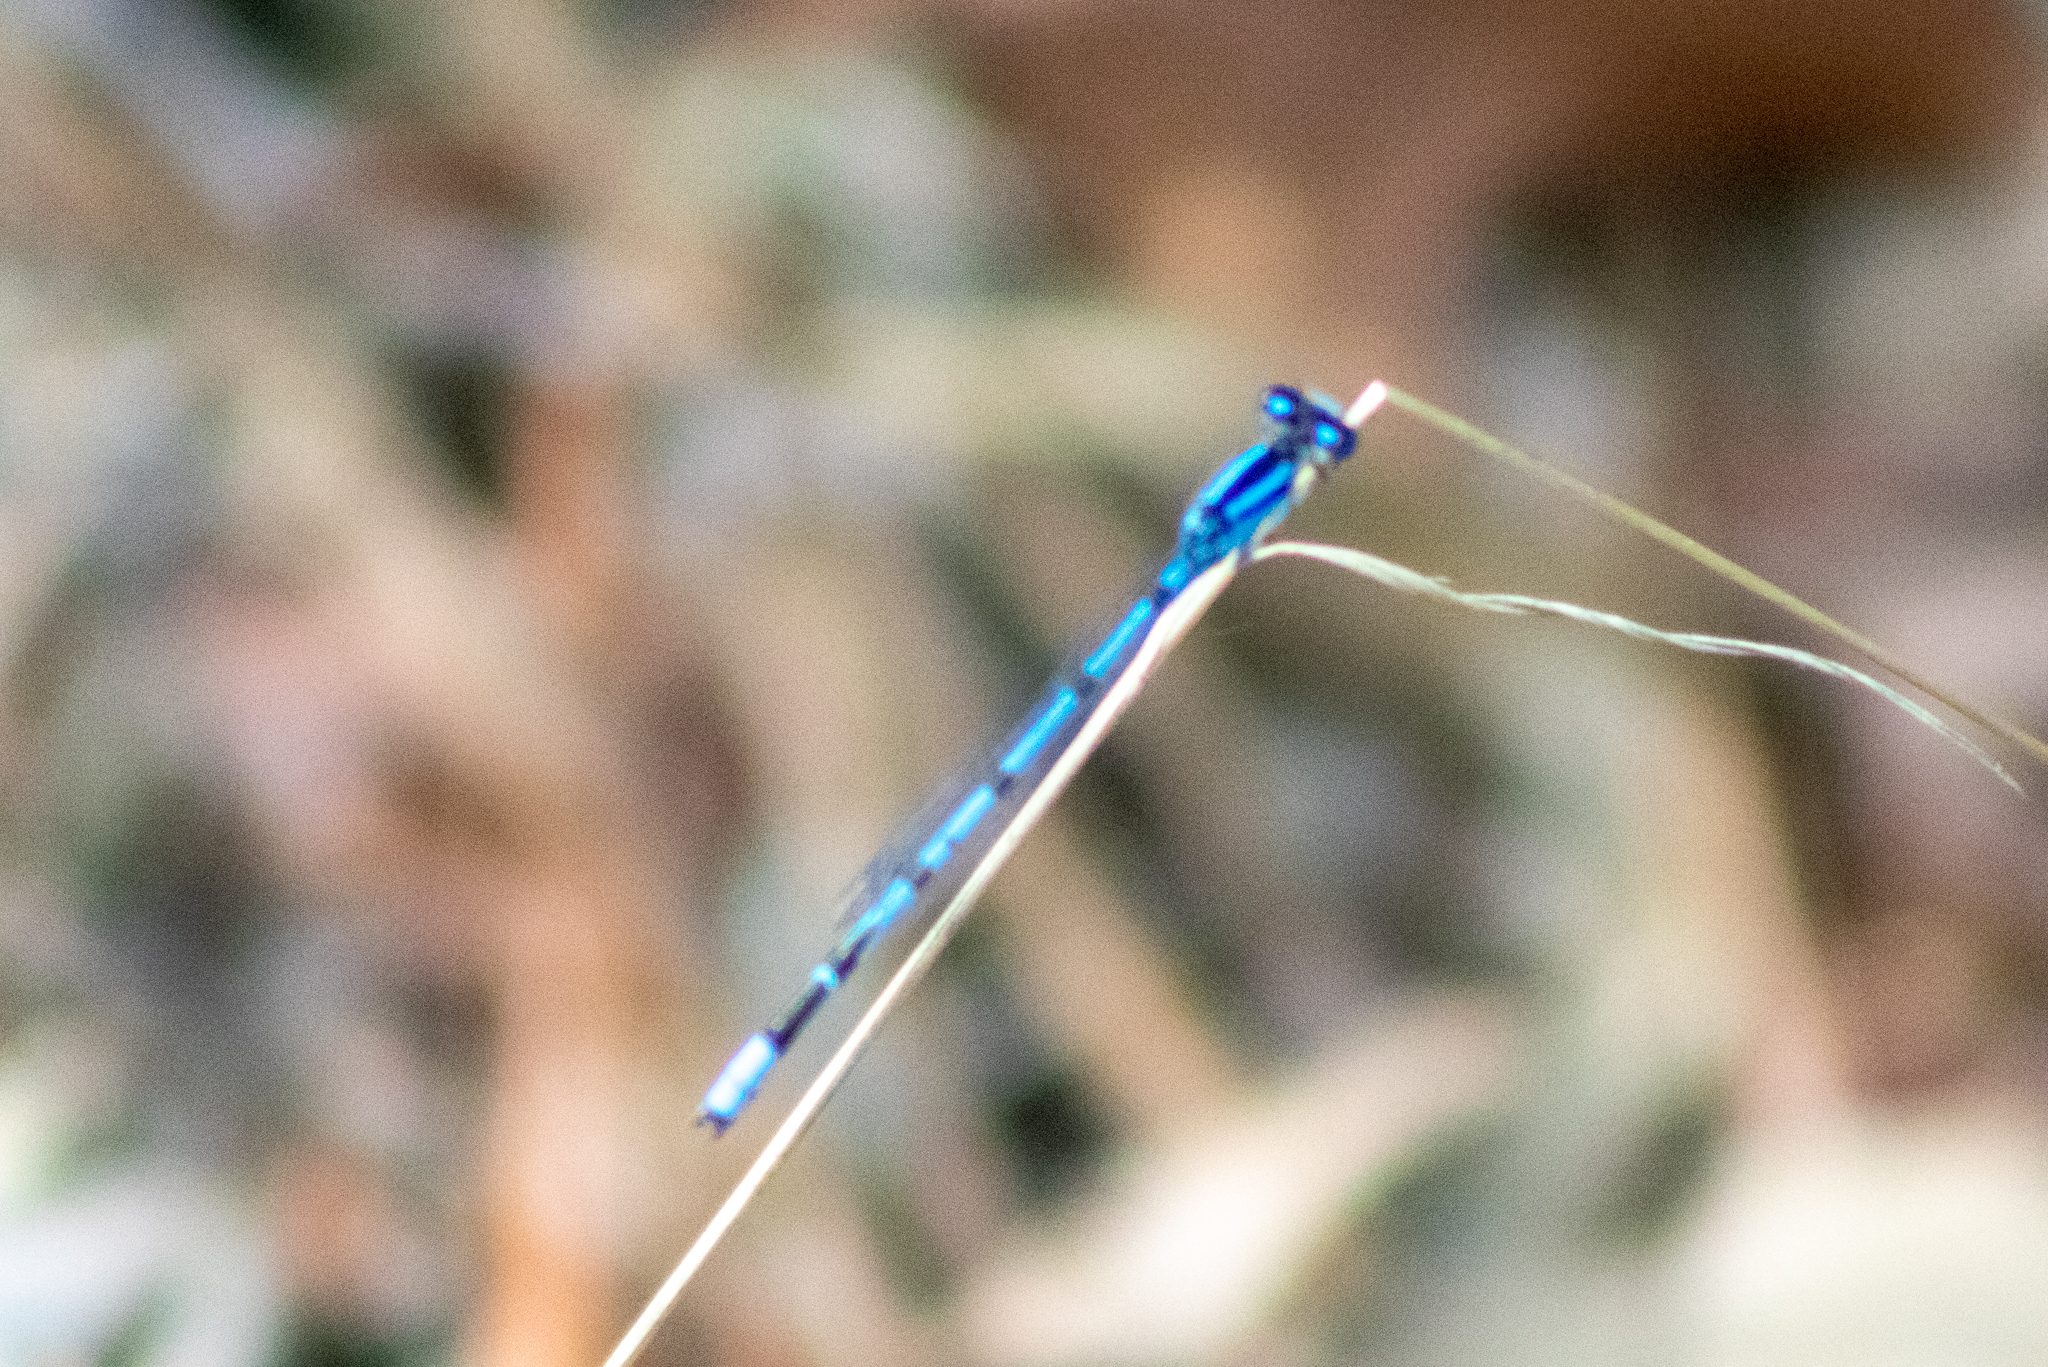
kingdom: Animalia
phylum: Arthropoda
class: Insecta
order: Odonata
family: Coenagrionidae
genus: Enallagma
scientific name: Enallagma civile
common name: Damselfly
